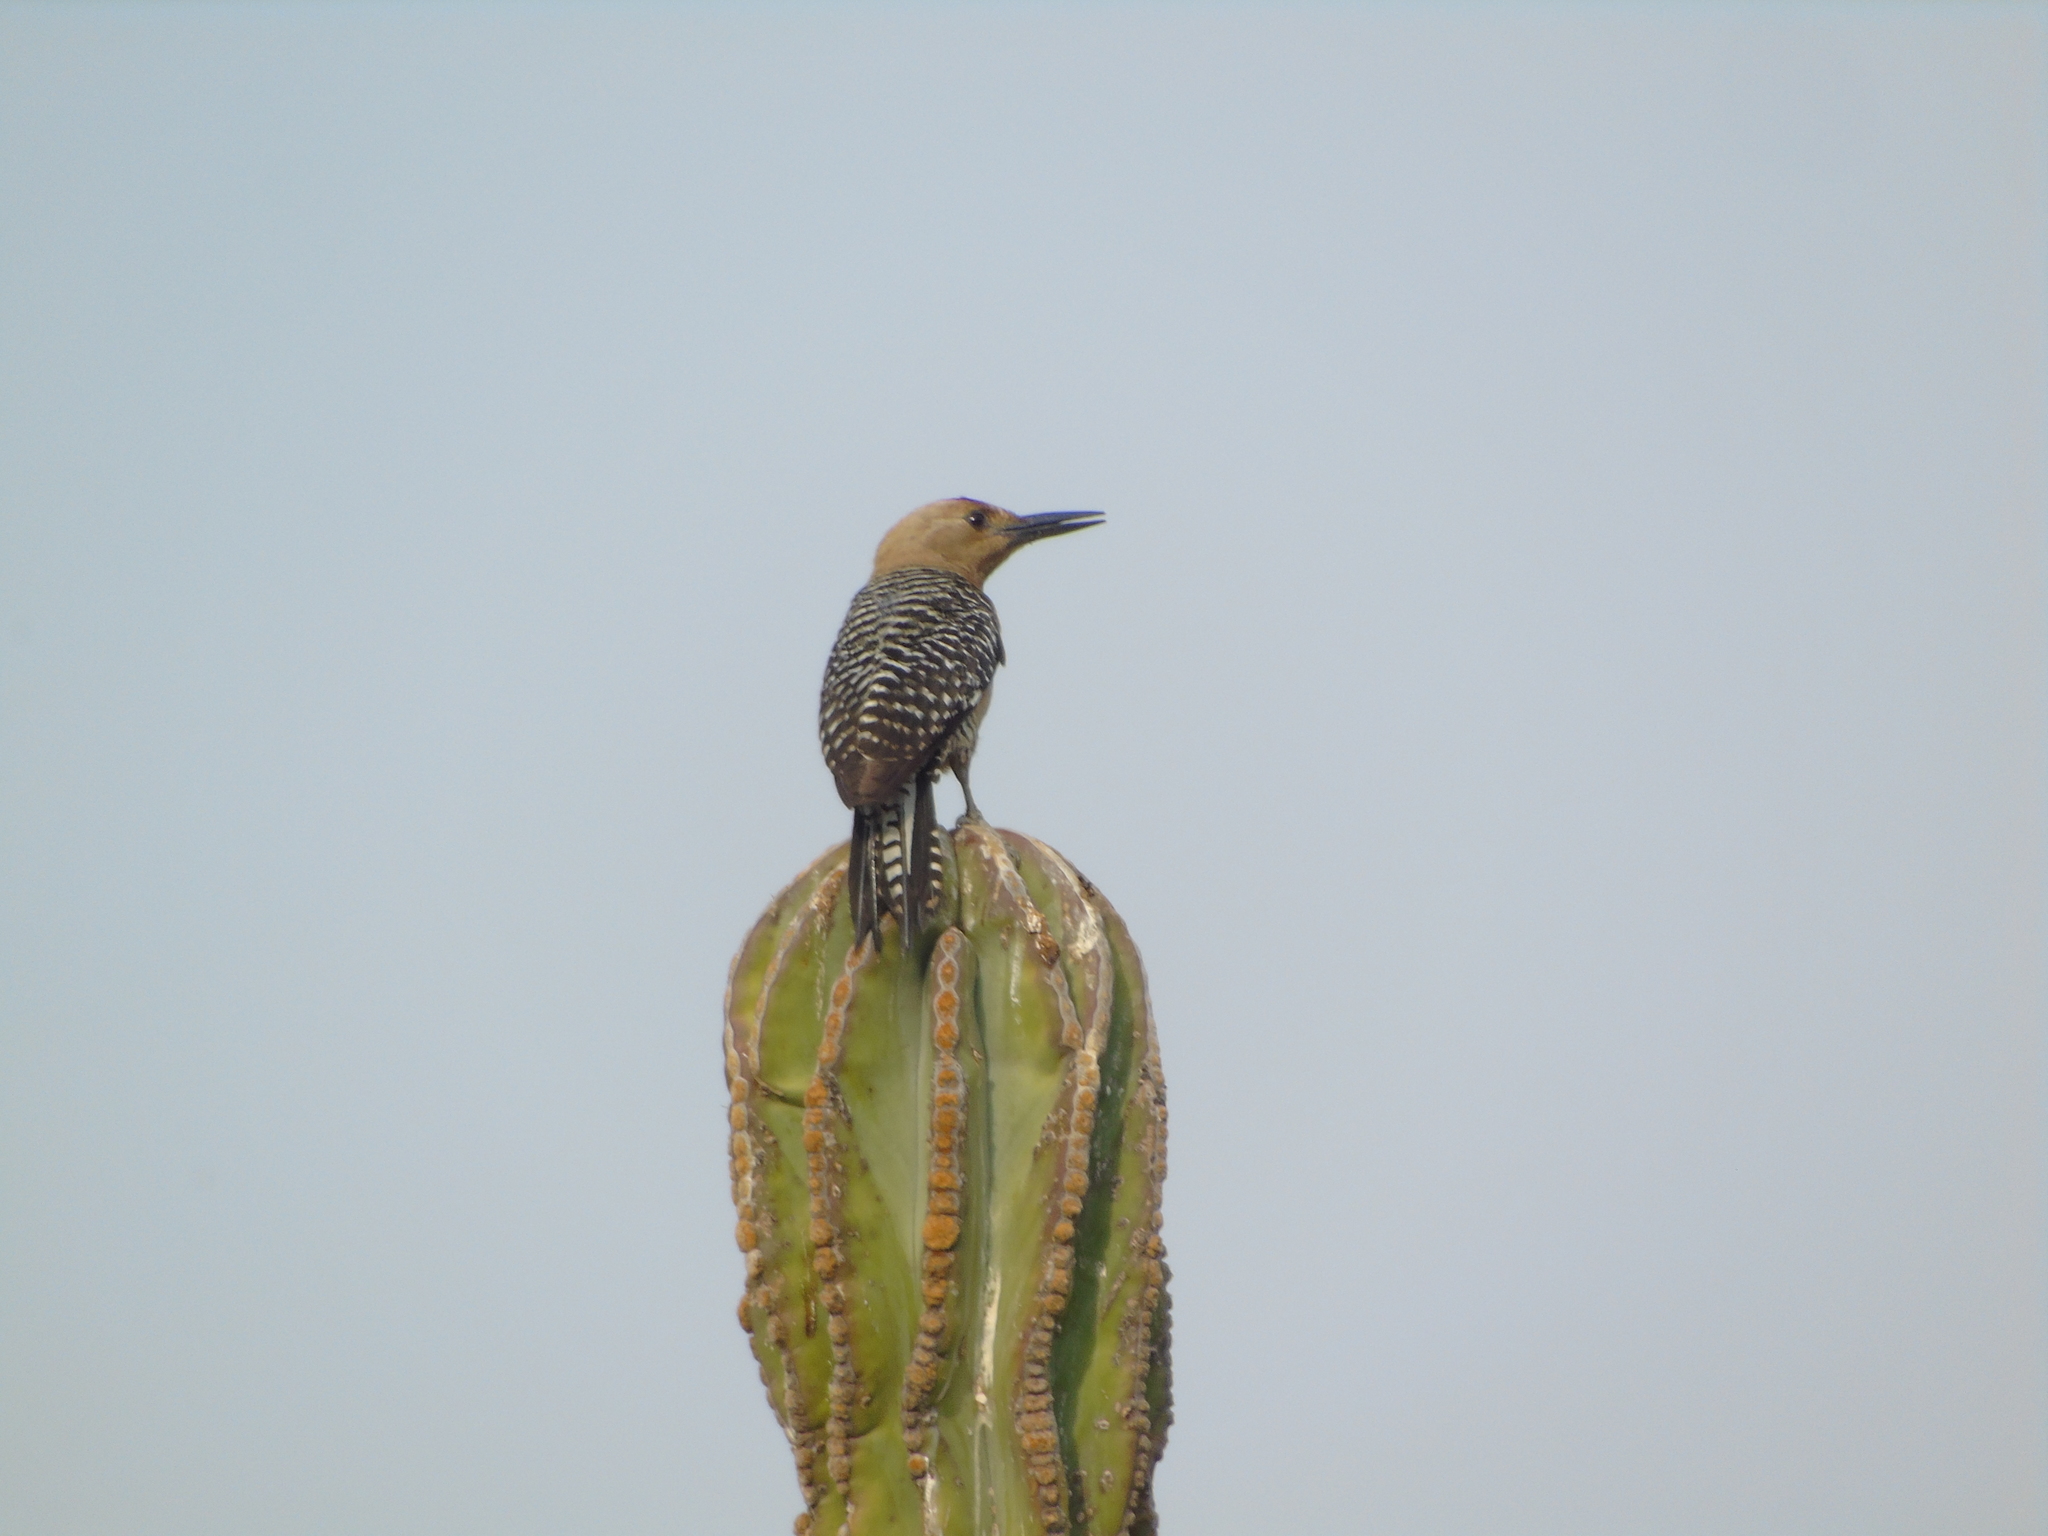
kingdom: Animalia
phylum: Chordata
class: Aves
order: Piciformes
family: Picidae
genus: Melanerpes
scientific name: Melanerpes uropygialis
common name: Gila woodpecker
